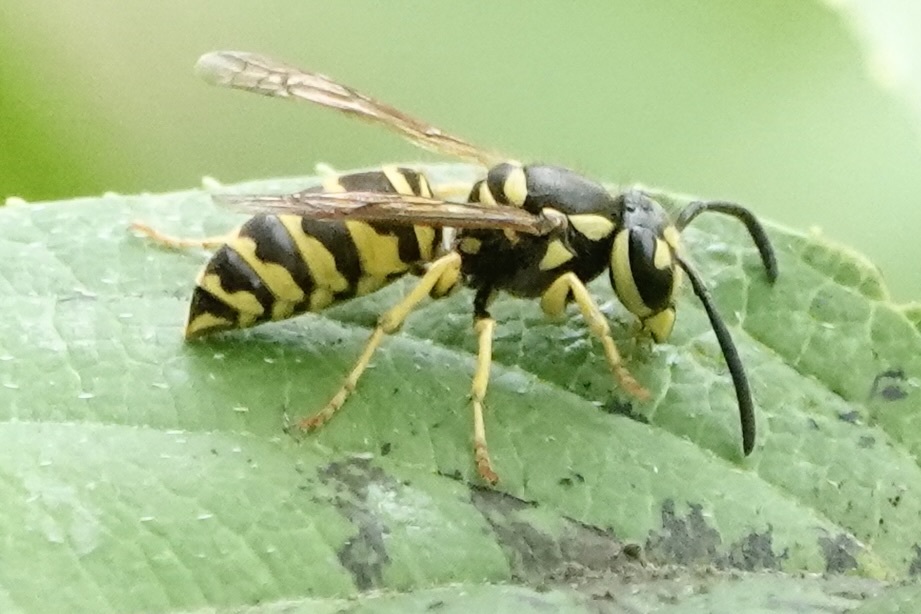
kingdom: Animalia
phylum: Arthropoda
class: Insecta
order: Hymenoptera
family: Vespidae
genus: Vespula
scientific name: Vespula maculifrons
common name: Eastern yellowjacket
